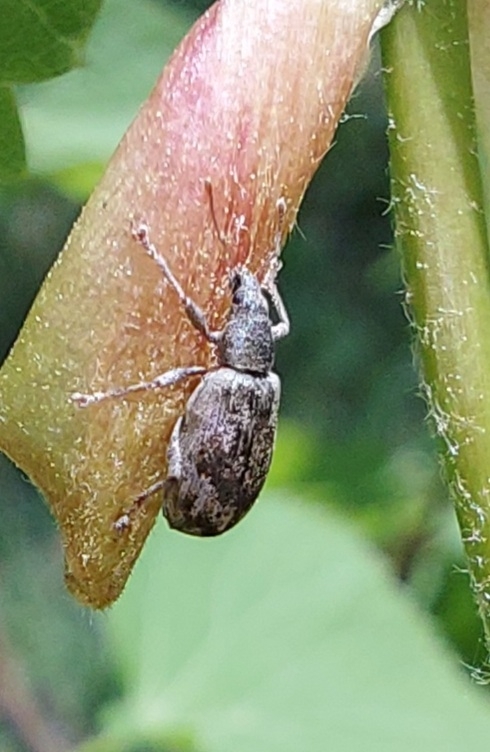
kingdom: Animalia
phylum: Arthropoda
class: Insecta
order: Coleoptera
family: Curculionidae
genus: Polydrusus
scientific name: Polydrusus tereticollis
